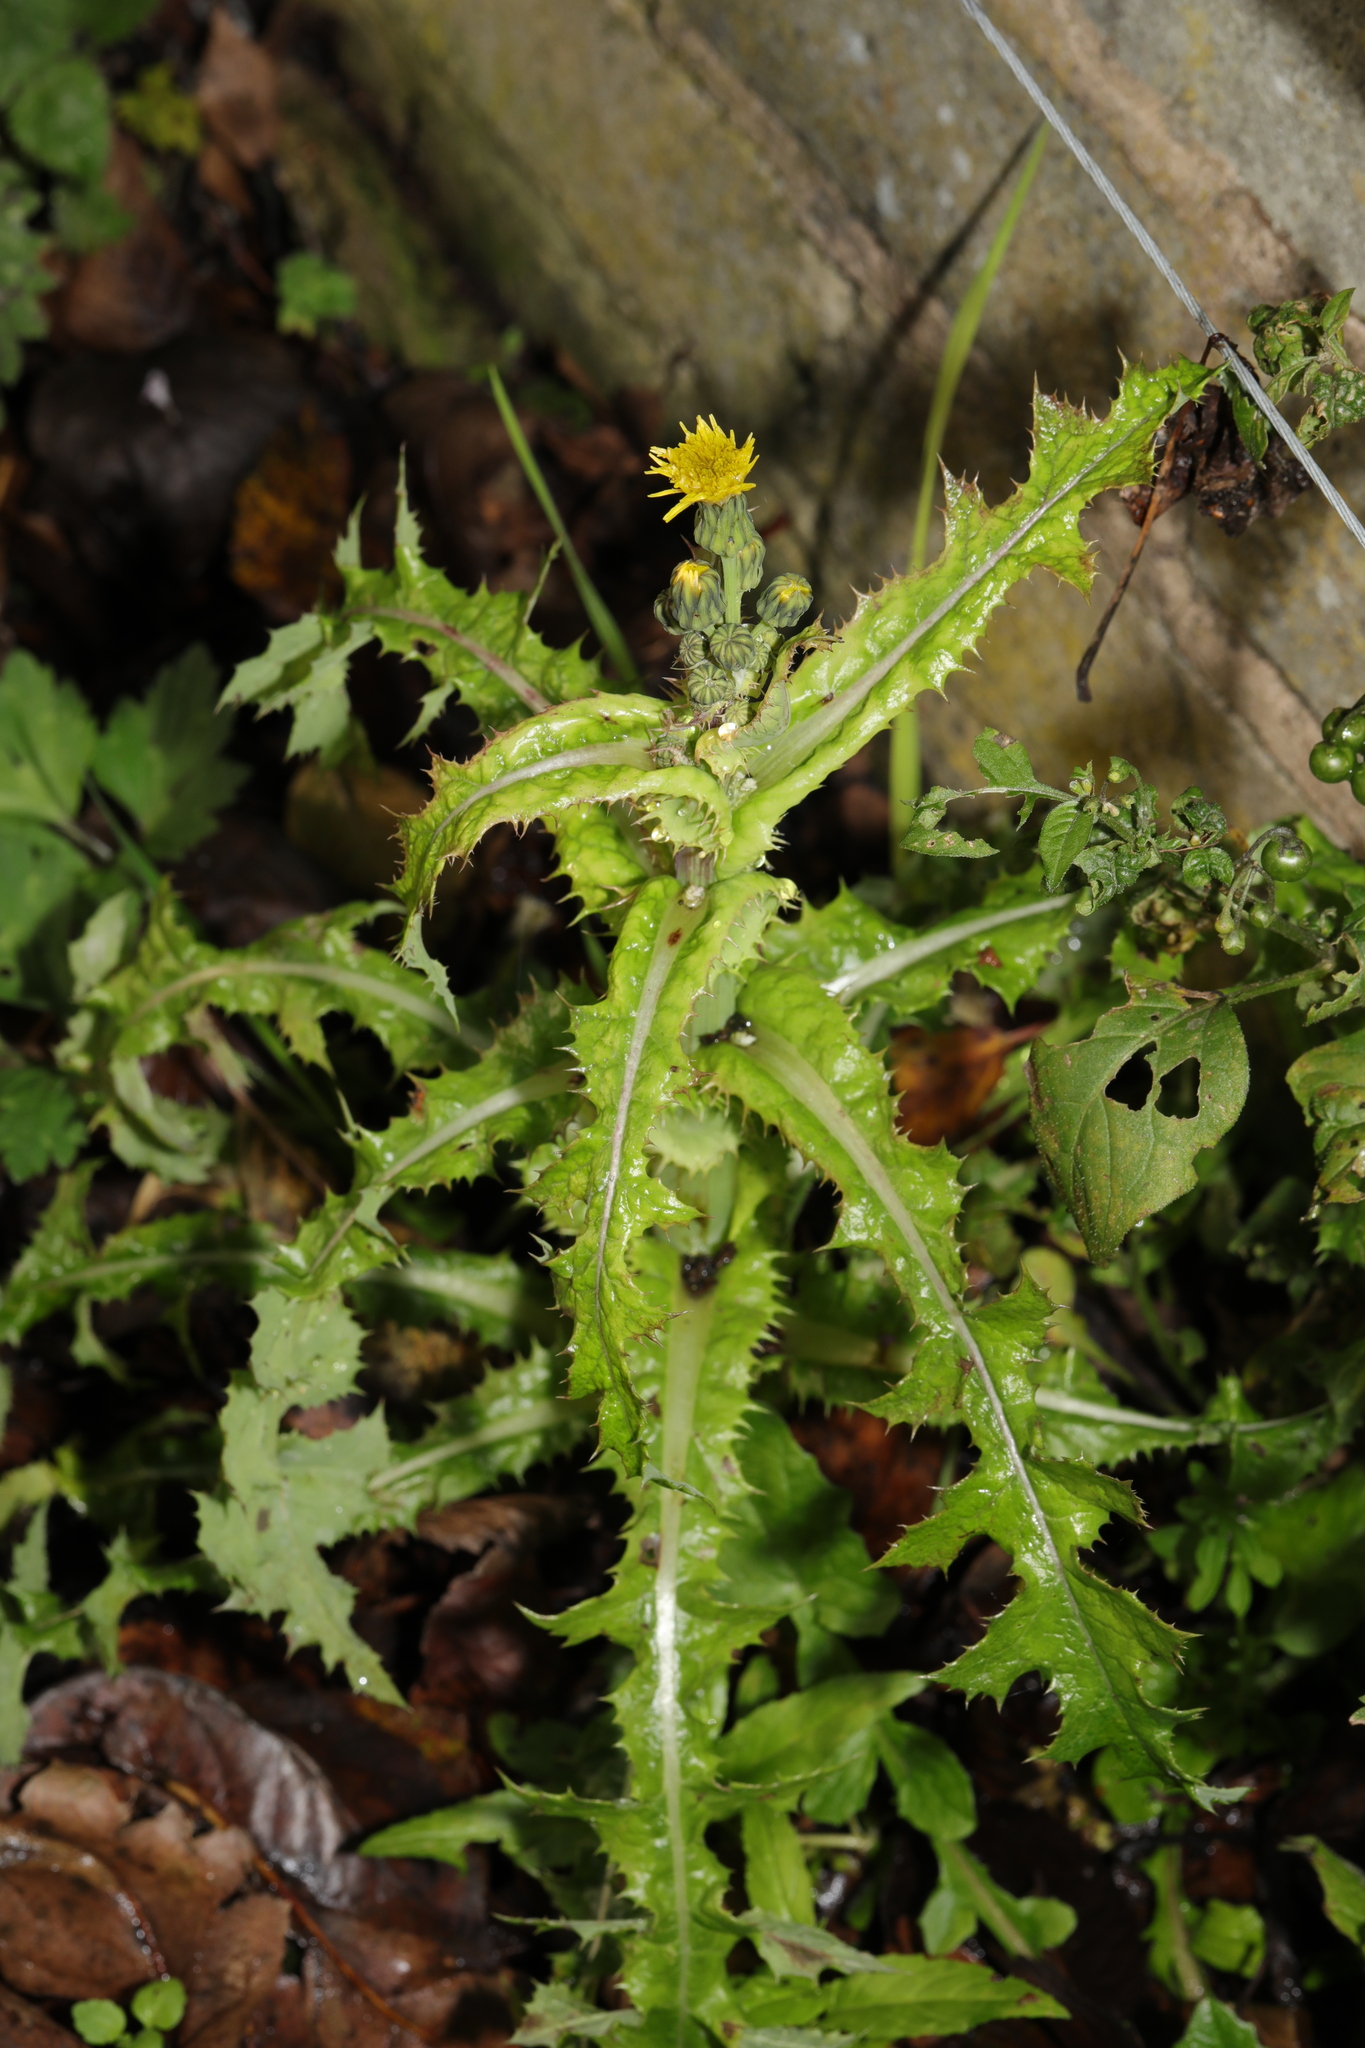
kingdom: Plantae
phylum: Tracheophyta
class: Magnoliopsida
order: Asterales
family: Asteraceae
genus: Sonchus
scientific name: Sonchus asper
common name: Prickly sow-thistle
